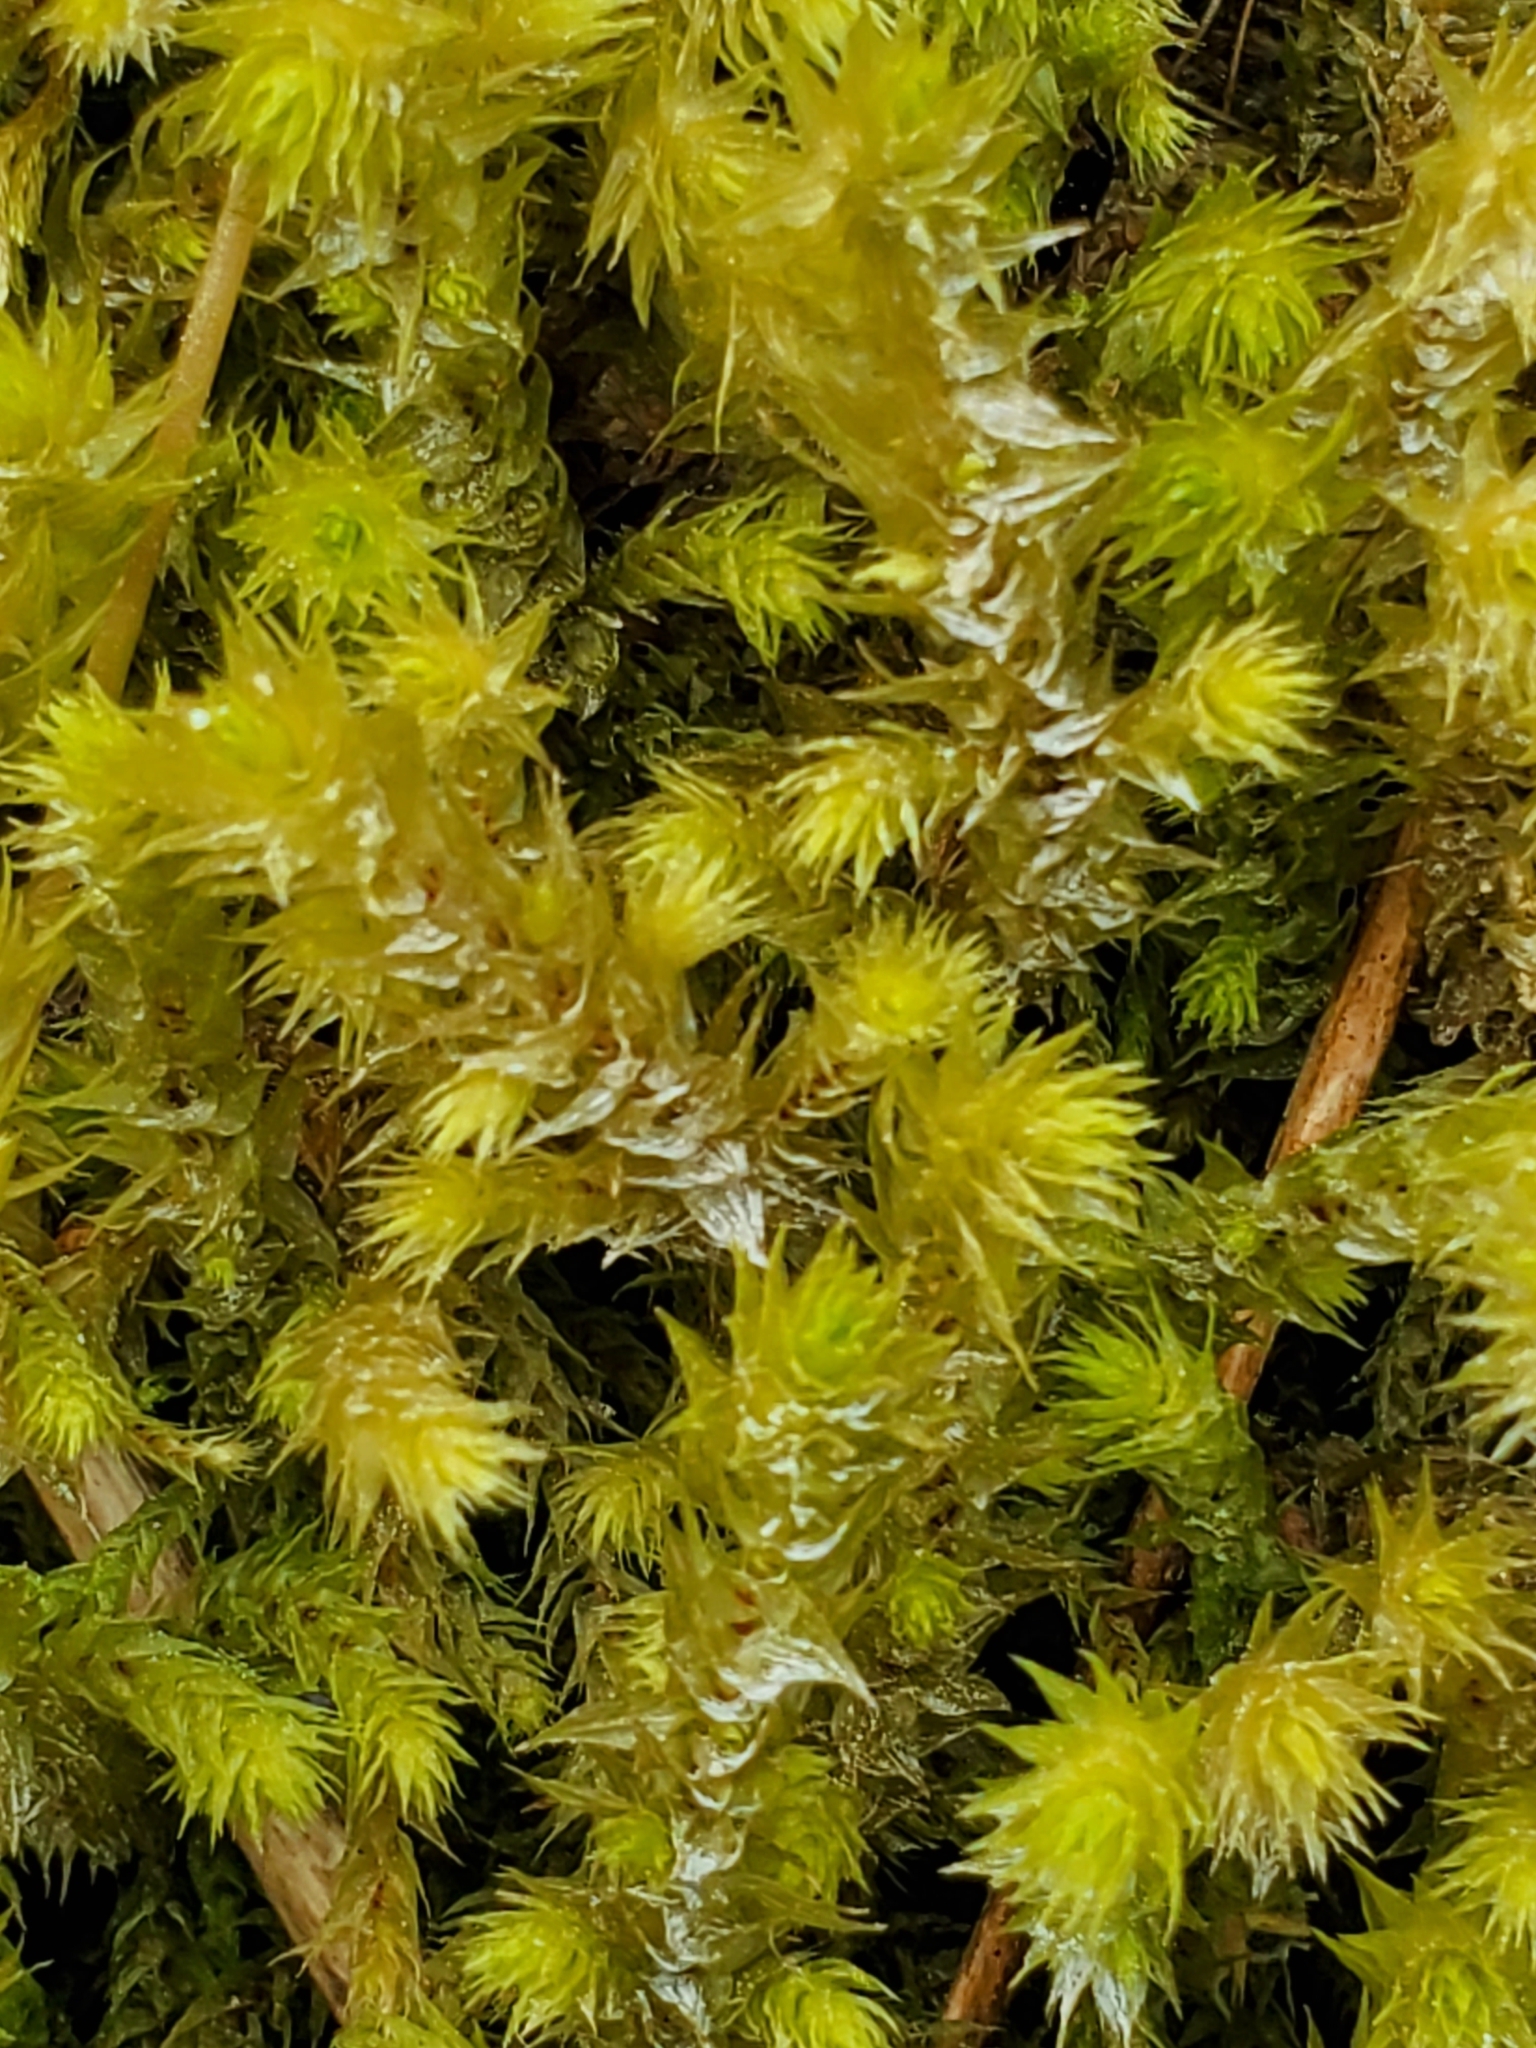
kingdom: Plantae
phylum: Bryophyta
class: Bryopsida
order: Hypnales
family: Hylocomiaceae
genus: Hylocomiadelphus
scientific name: Hylocomiadelphus triquetrus
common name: Rough goose neck moss
